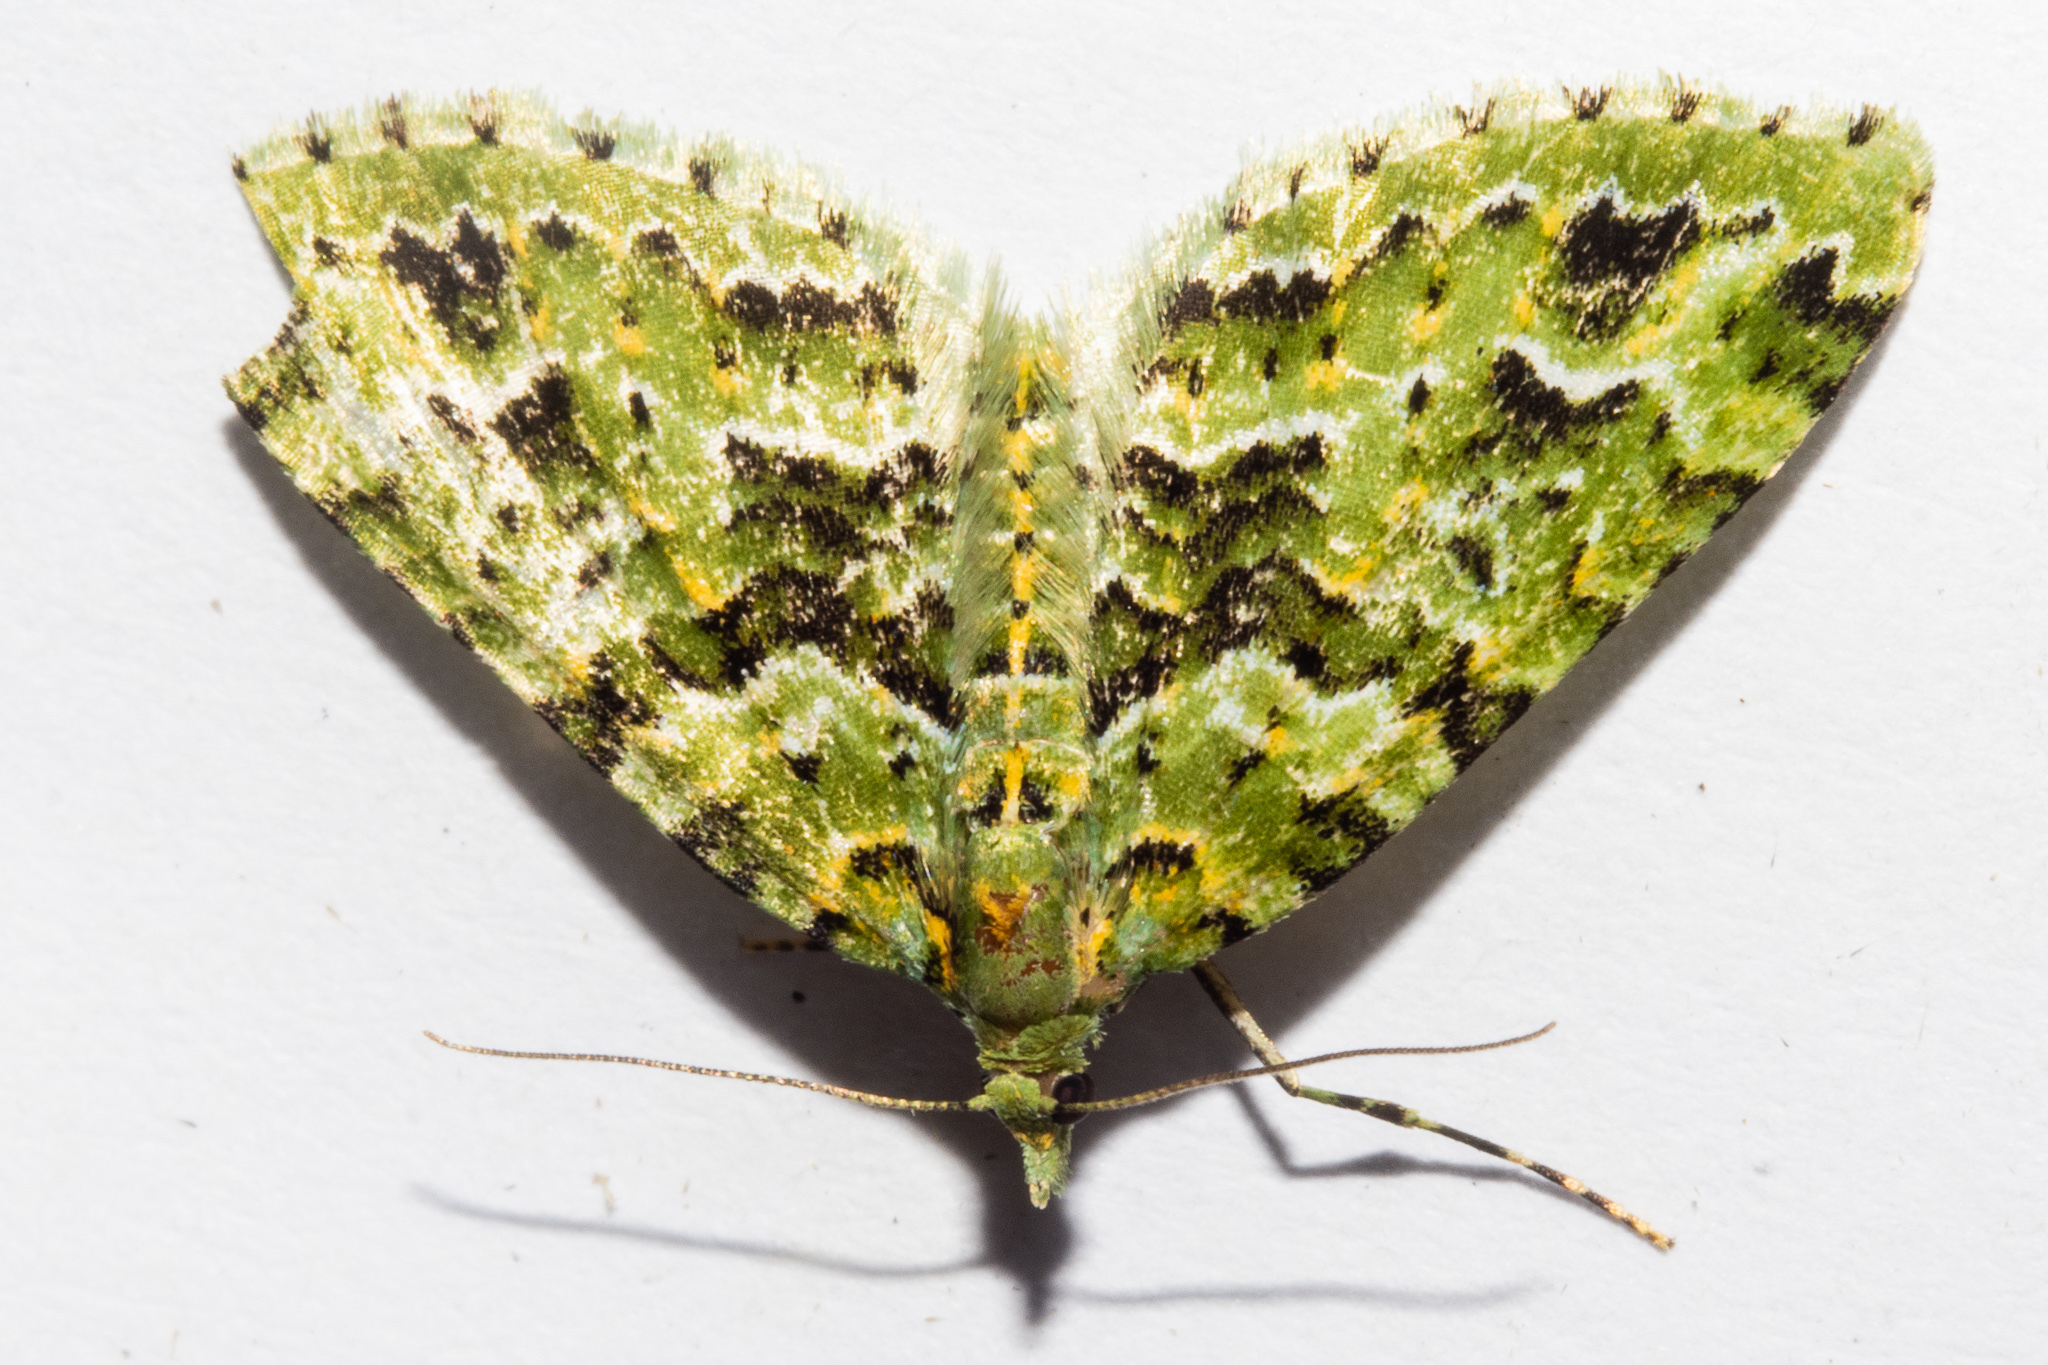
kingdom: Animalia
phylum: Arthropoda
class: Insecta
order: Lepidoptera
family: Geometridae
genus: Pasiphila
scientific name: Pasiphila melochlora
